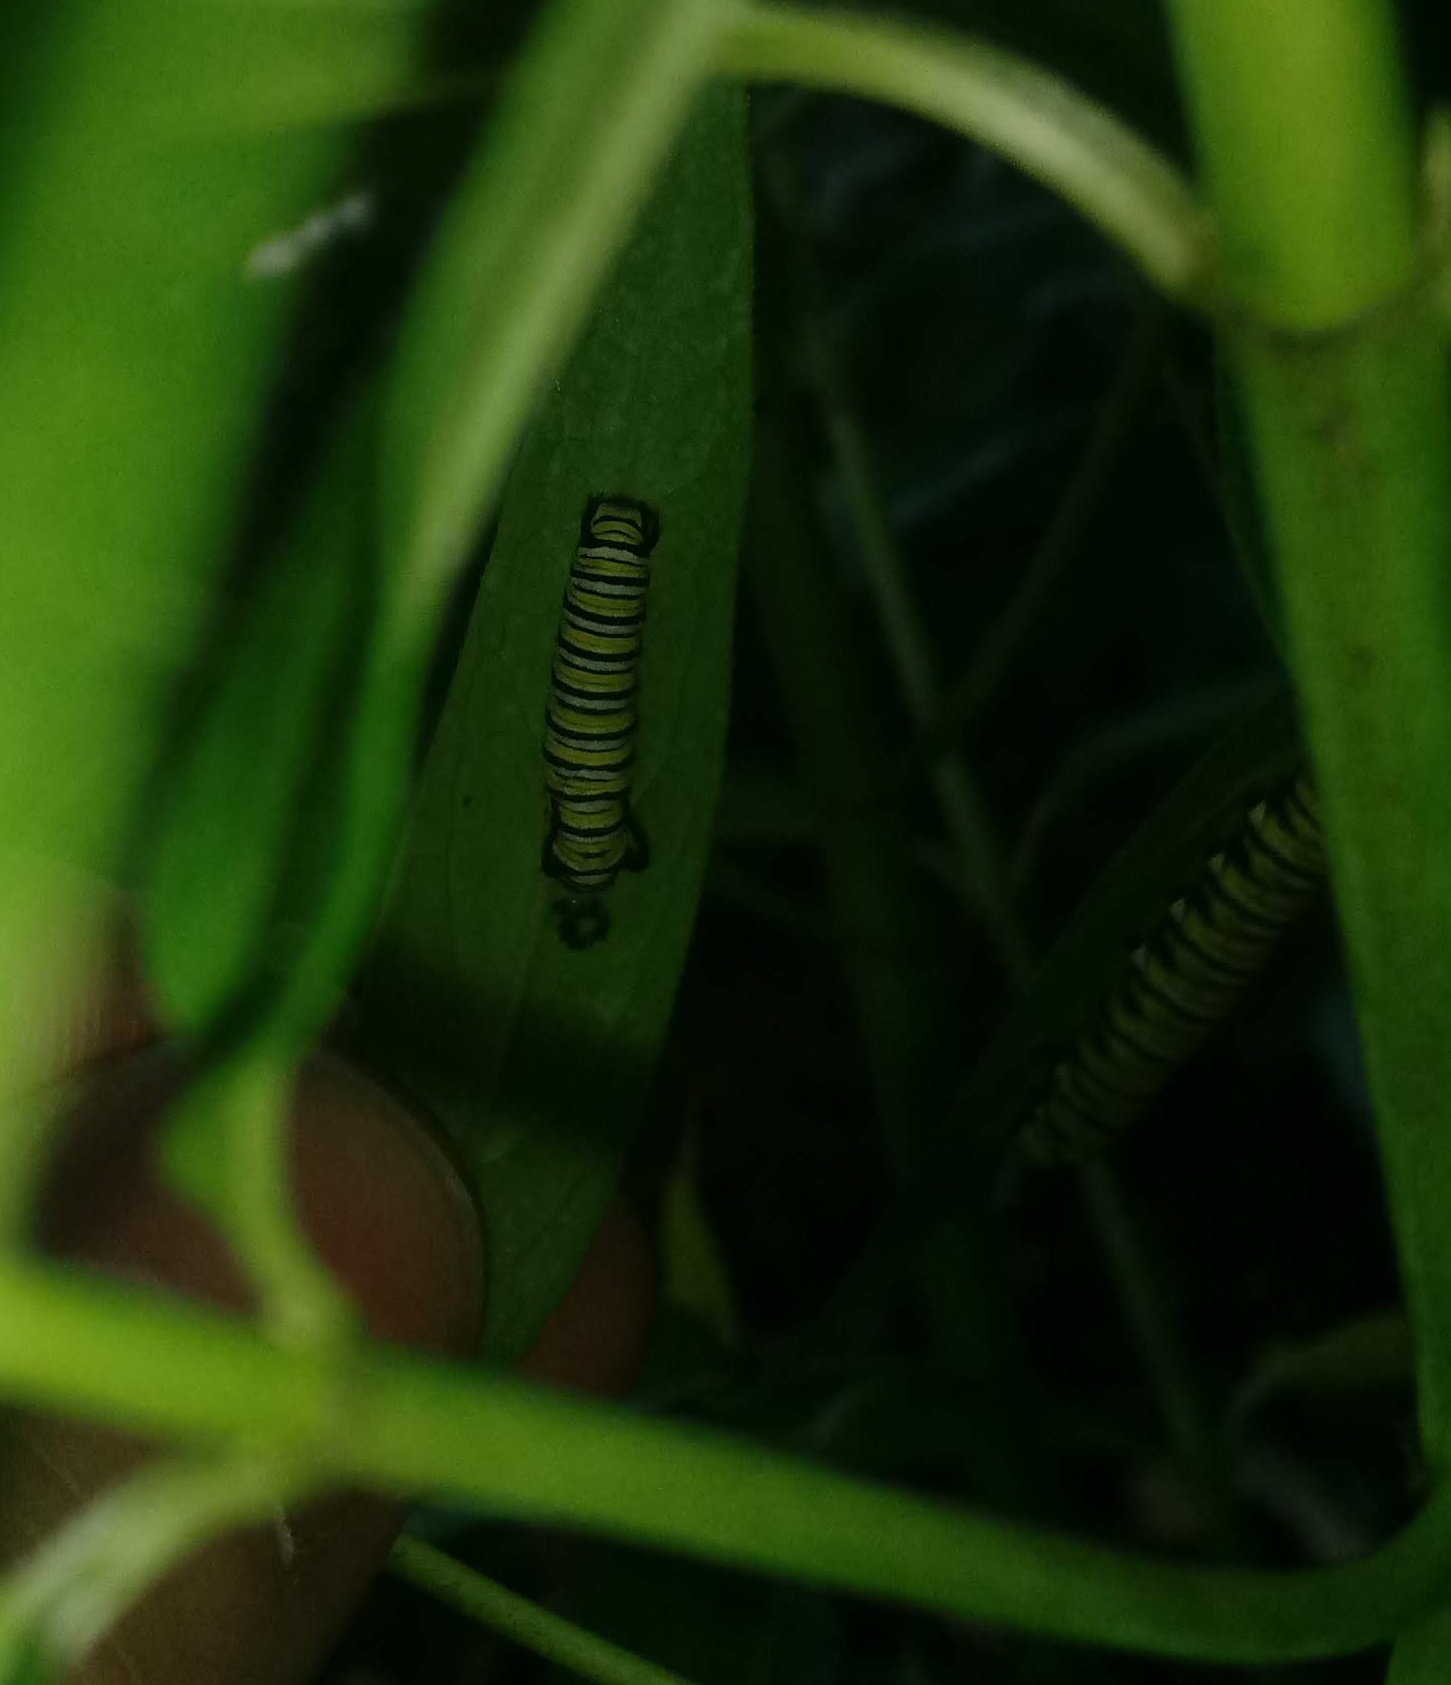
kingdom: Animalia
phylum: Arthropoda
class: Insecta
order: Lepidoptera
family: Nymphalidae
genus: Danaus
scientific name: Danaus plexippus
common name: Monarch
